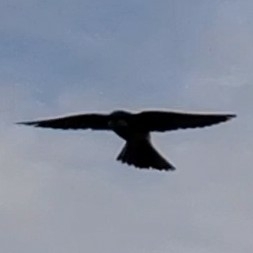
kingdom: Animalia
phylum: Chordata
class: Aves
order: Passeriformes
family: Hirundinidae
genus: Tachycineta
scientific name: Tachycineta bicolor
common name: Tree swallow
